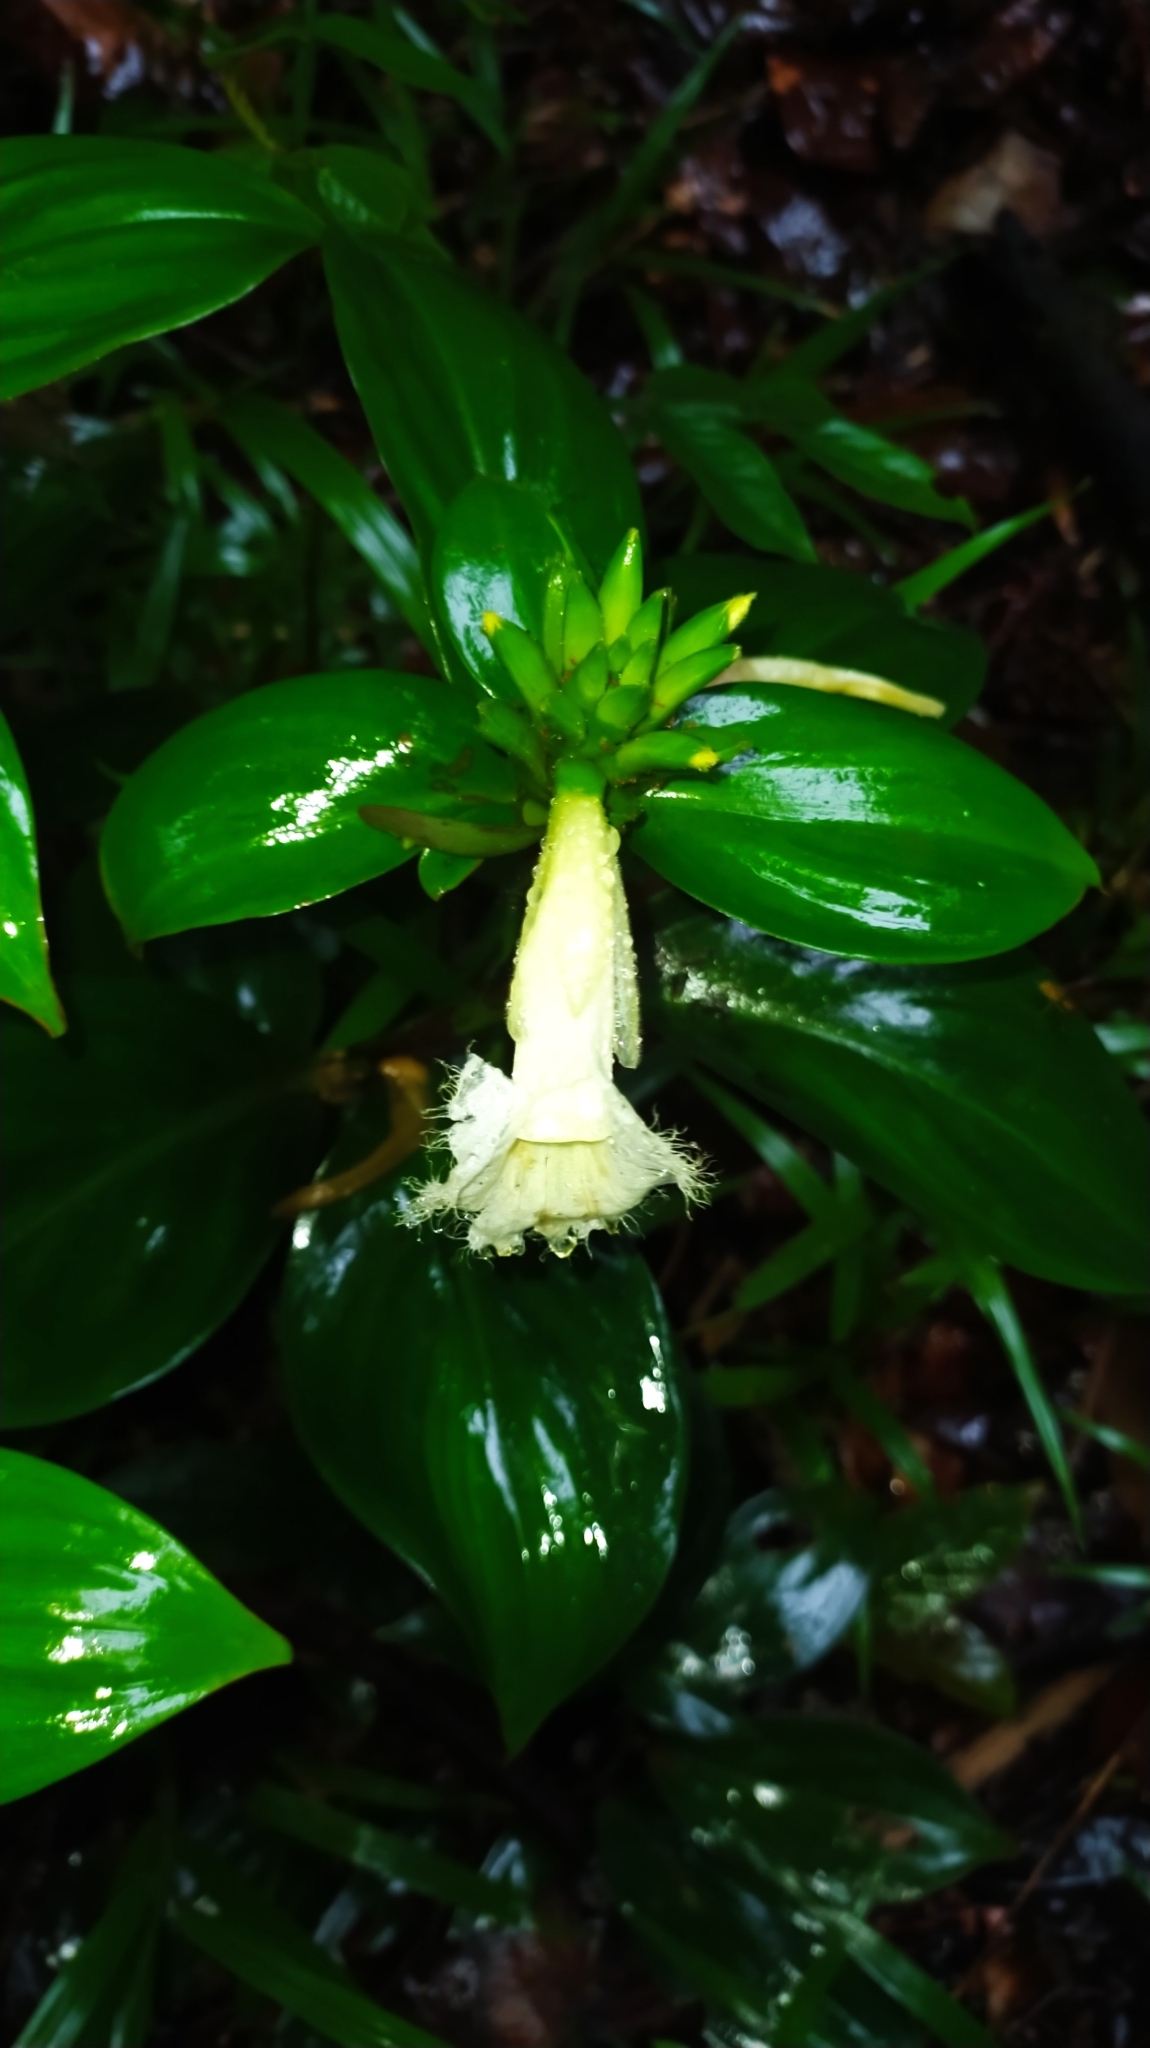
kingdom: Plantae
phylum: Tracheophyta
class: Liliopsida
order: Zingiberales
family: Costaceae
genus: Chamaecostus
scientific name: Chamaecostus congestiflorus
